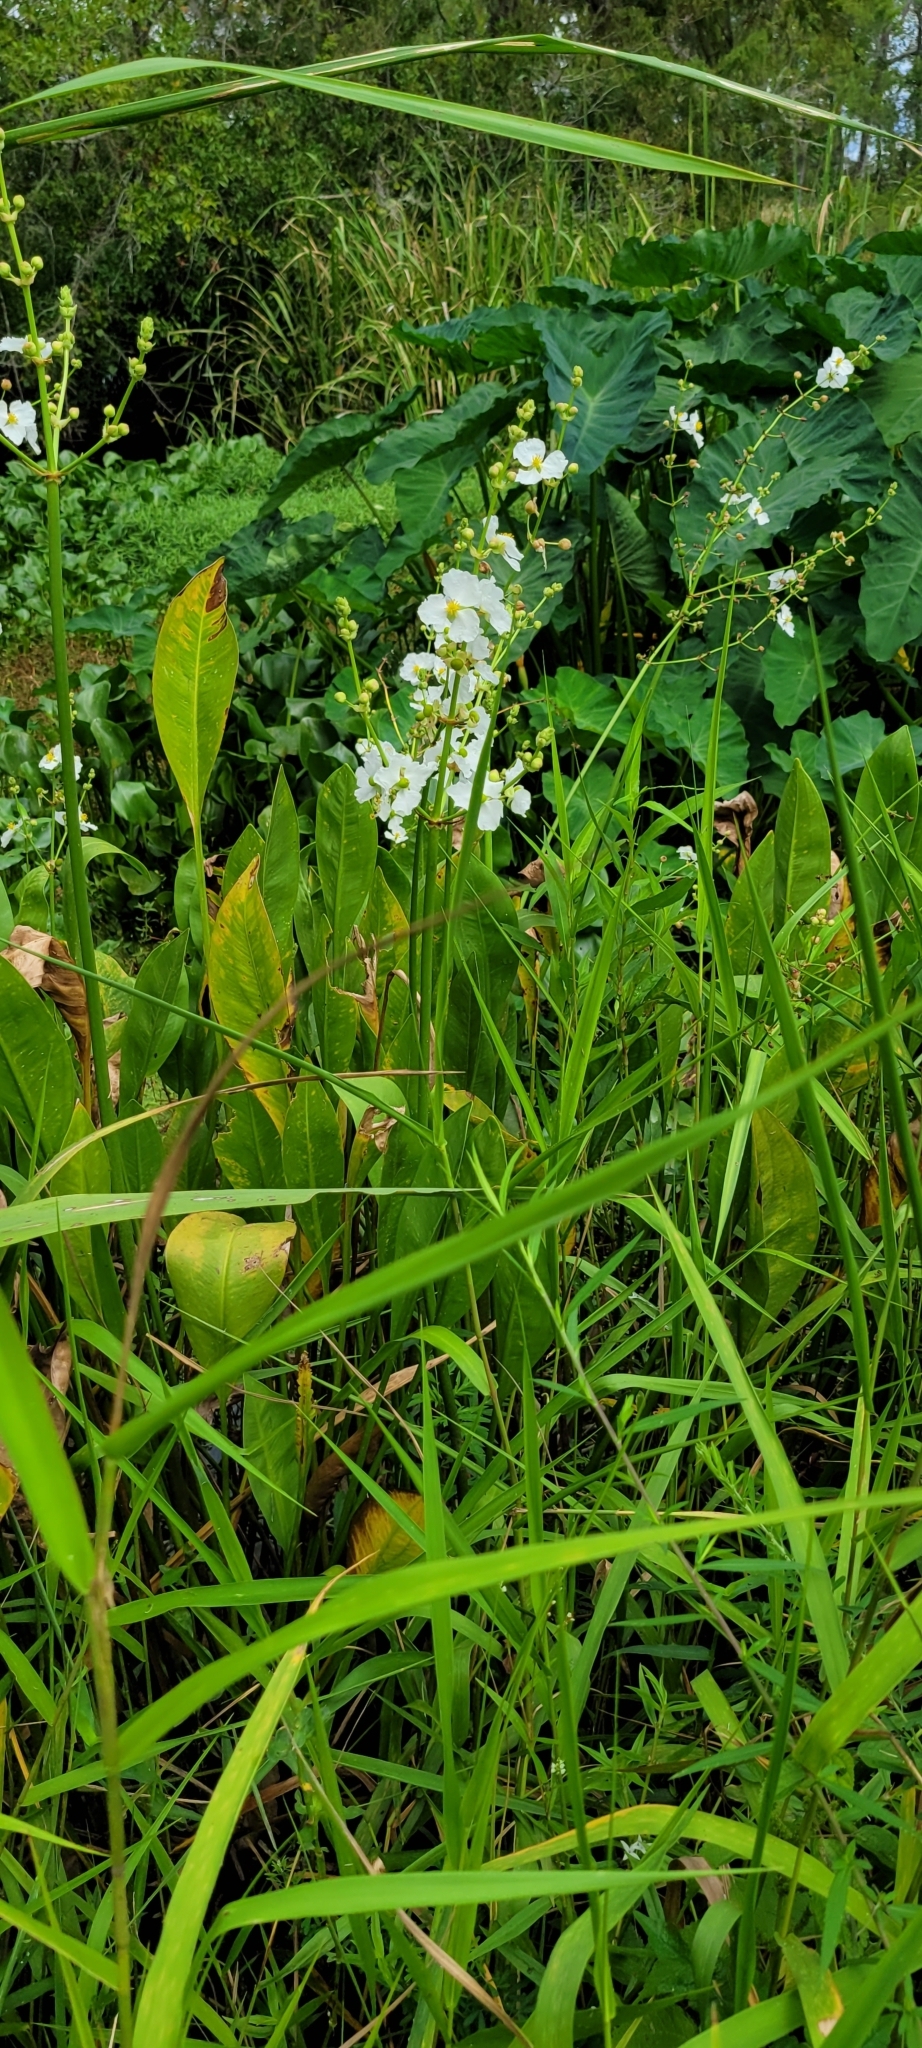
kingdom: Plantae
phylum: Tracheophyta
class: Liliopsida
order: Alismatales
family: Alismataceae
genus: Sagittaria
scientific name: Sagittaria lancifolia
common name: Lance-leaf arrowhead
